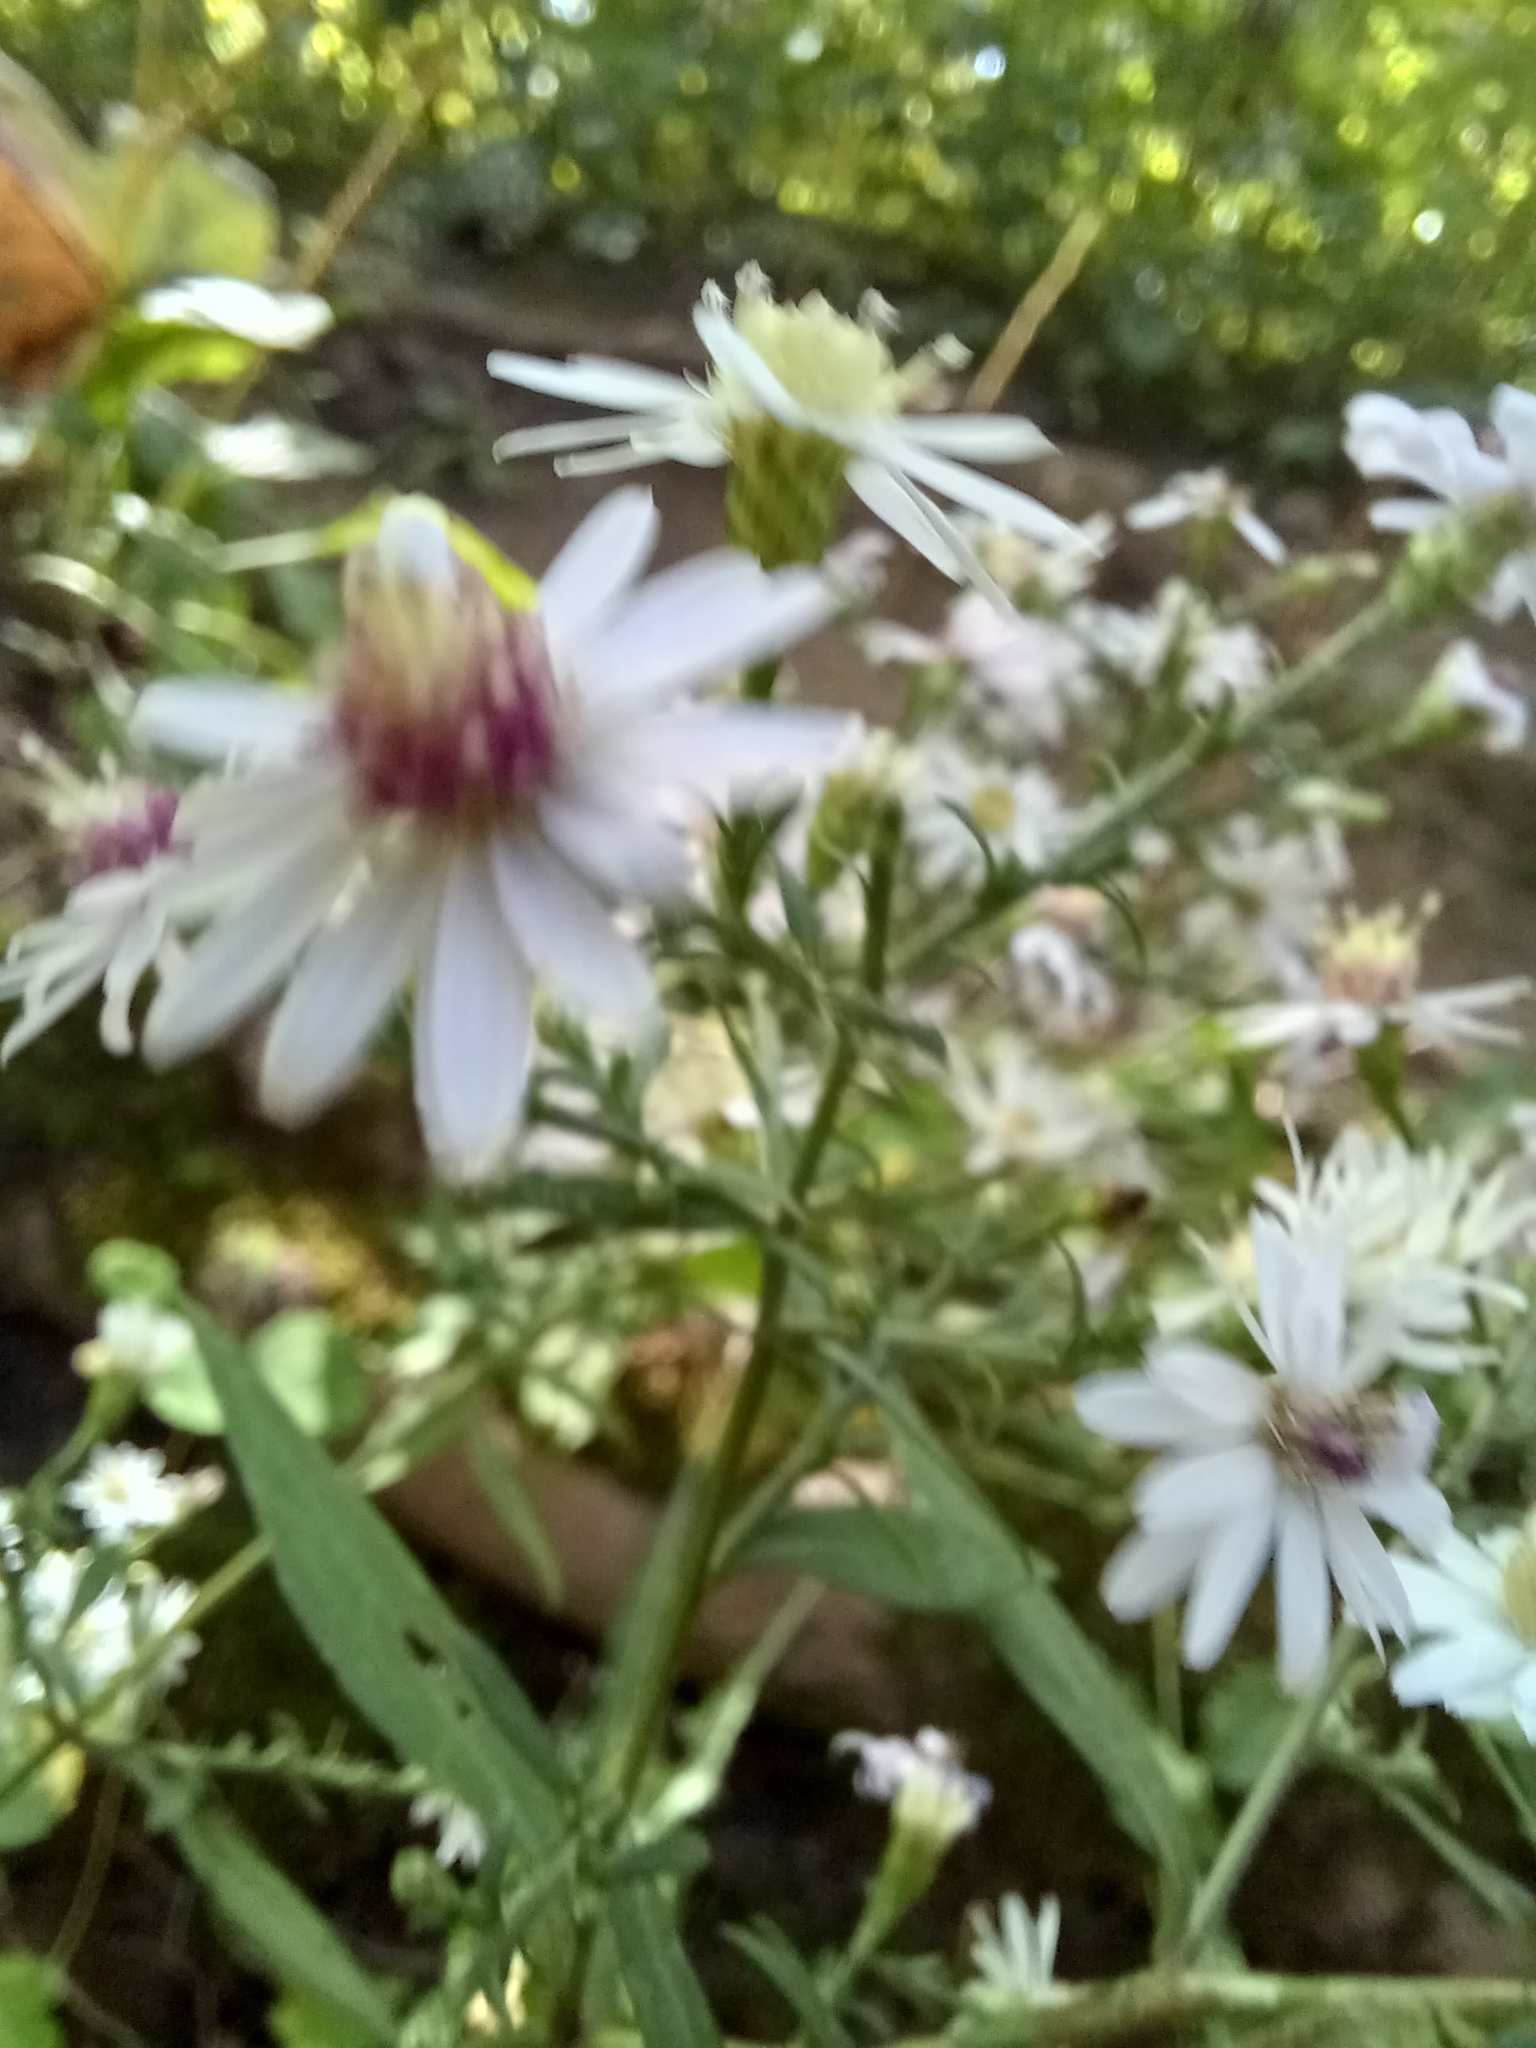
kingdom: Plantae
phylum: Tracheophyta
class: Magnoliopsida
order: Asterales
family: Asteraceae
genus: Symphyotrichum
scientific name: Symphyotrichum cordifolium
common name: Beeweed
